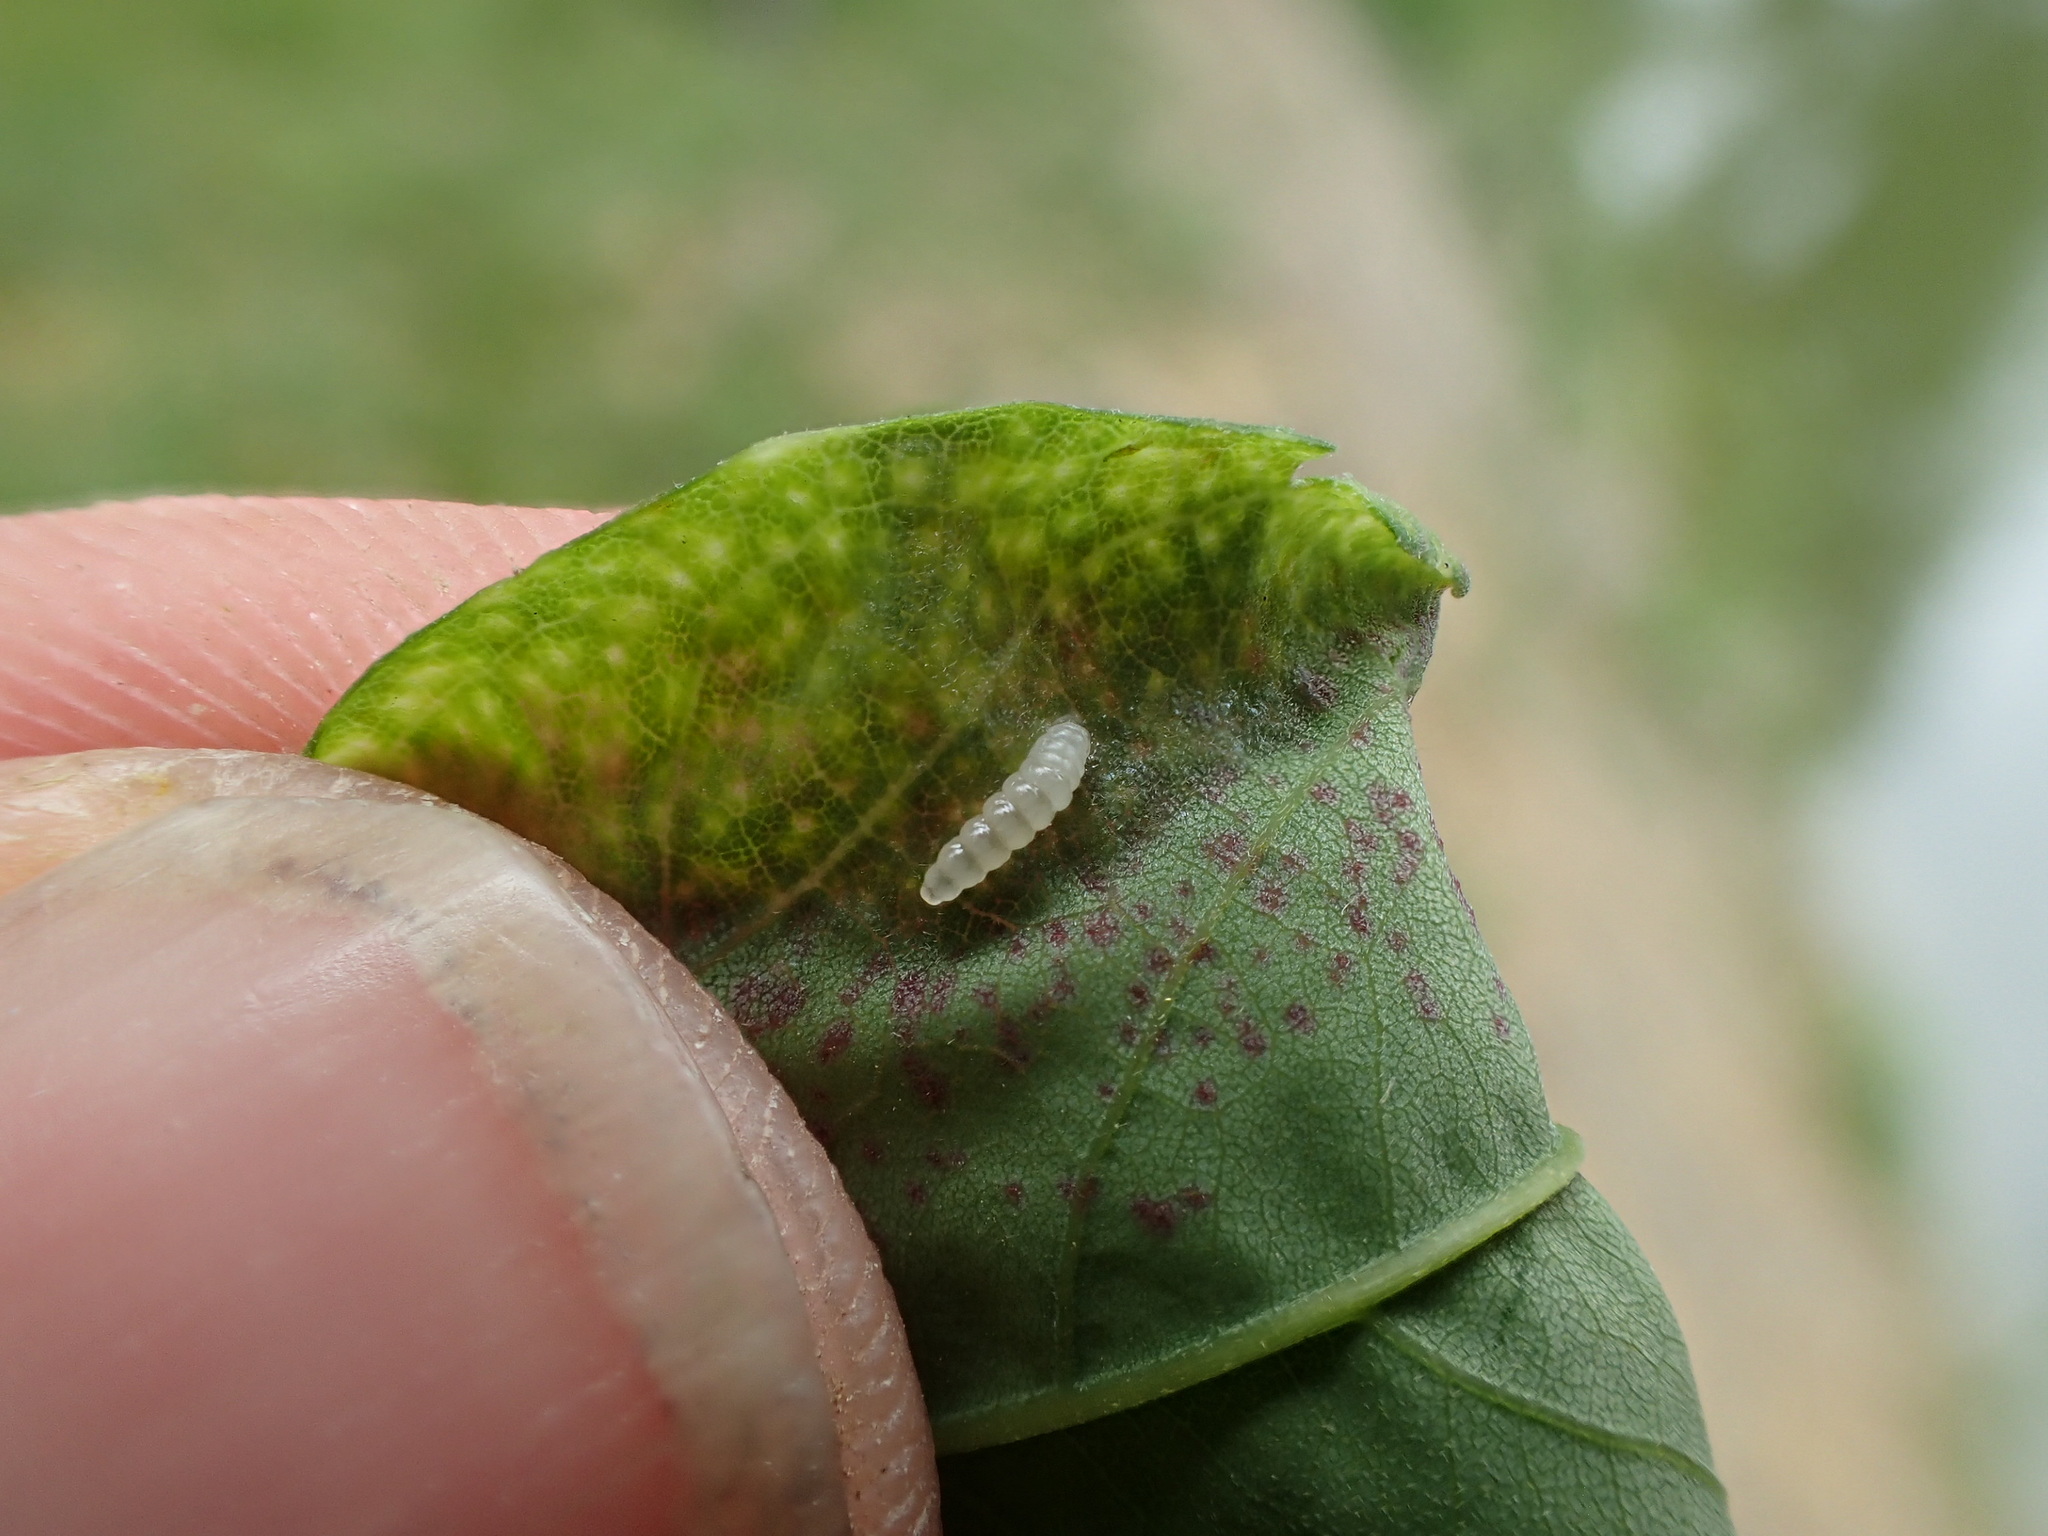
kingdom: Animalia
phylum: Arthropoda
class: Insecta
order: Diptera
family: Cecidomyiidae
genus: Obolodiplosis
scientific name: Obolodiplosis robiniae
